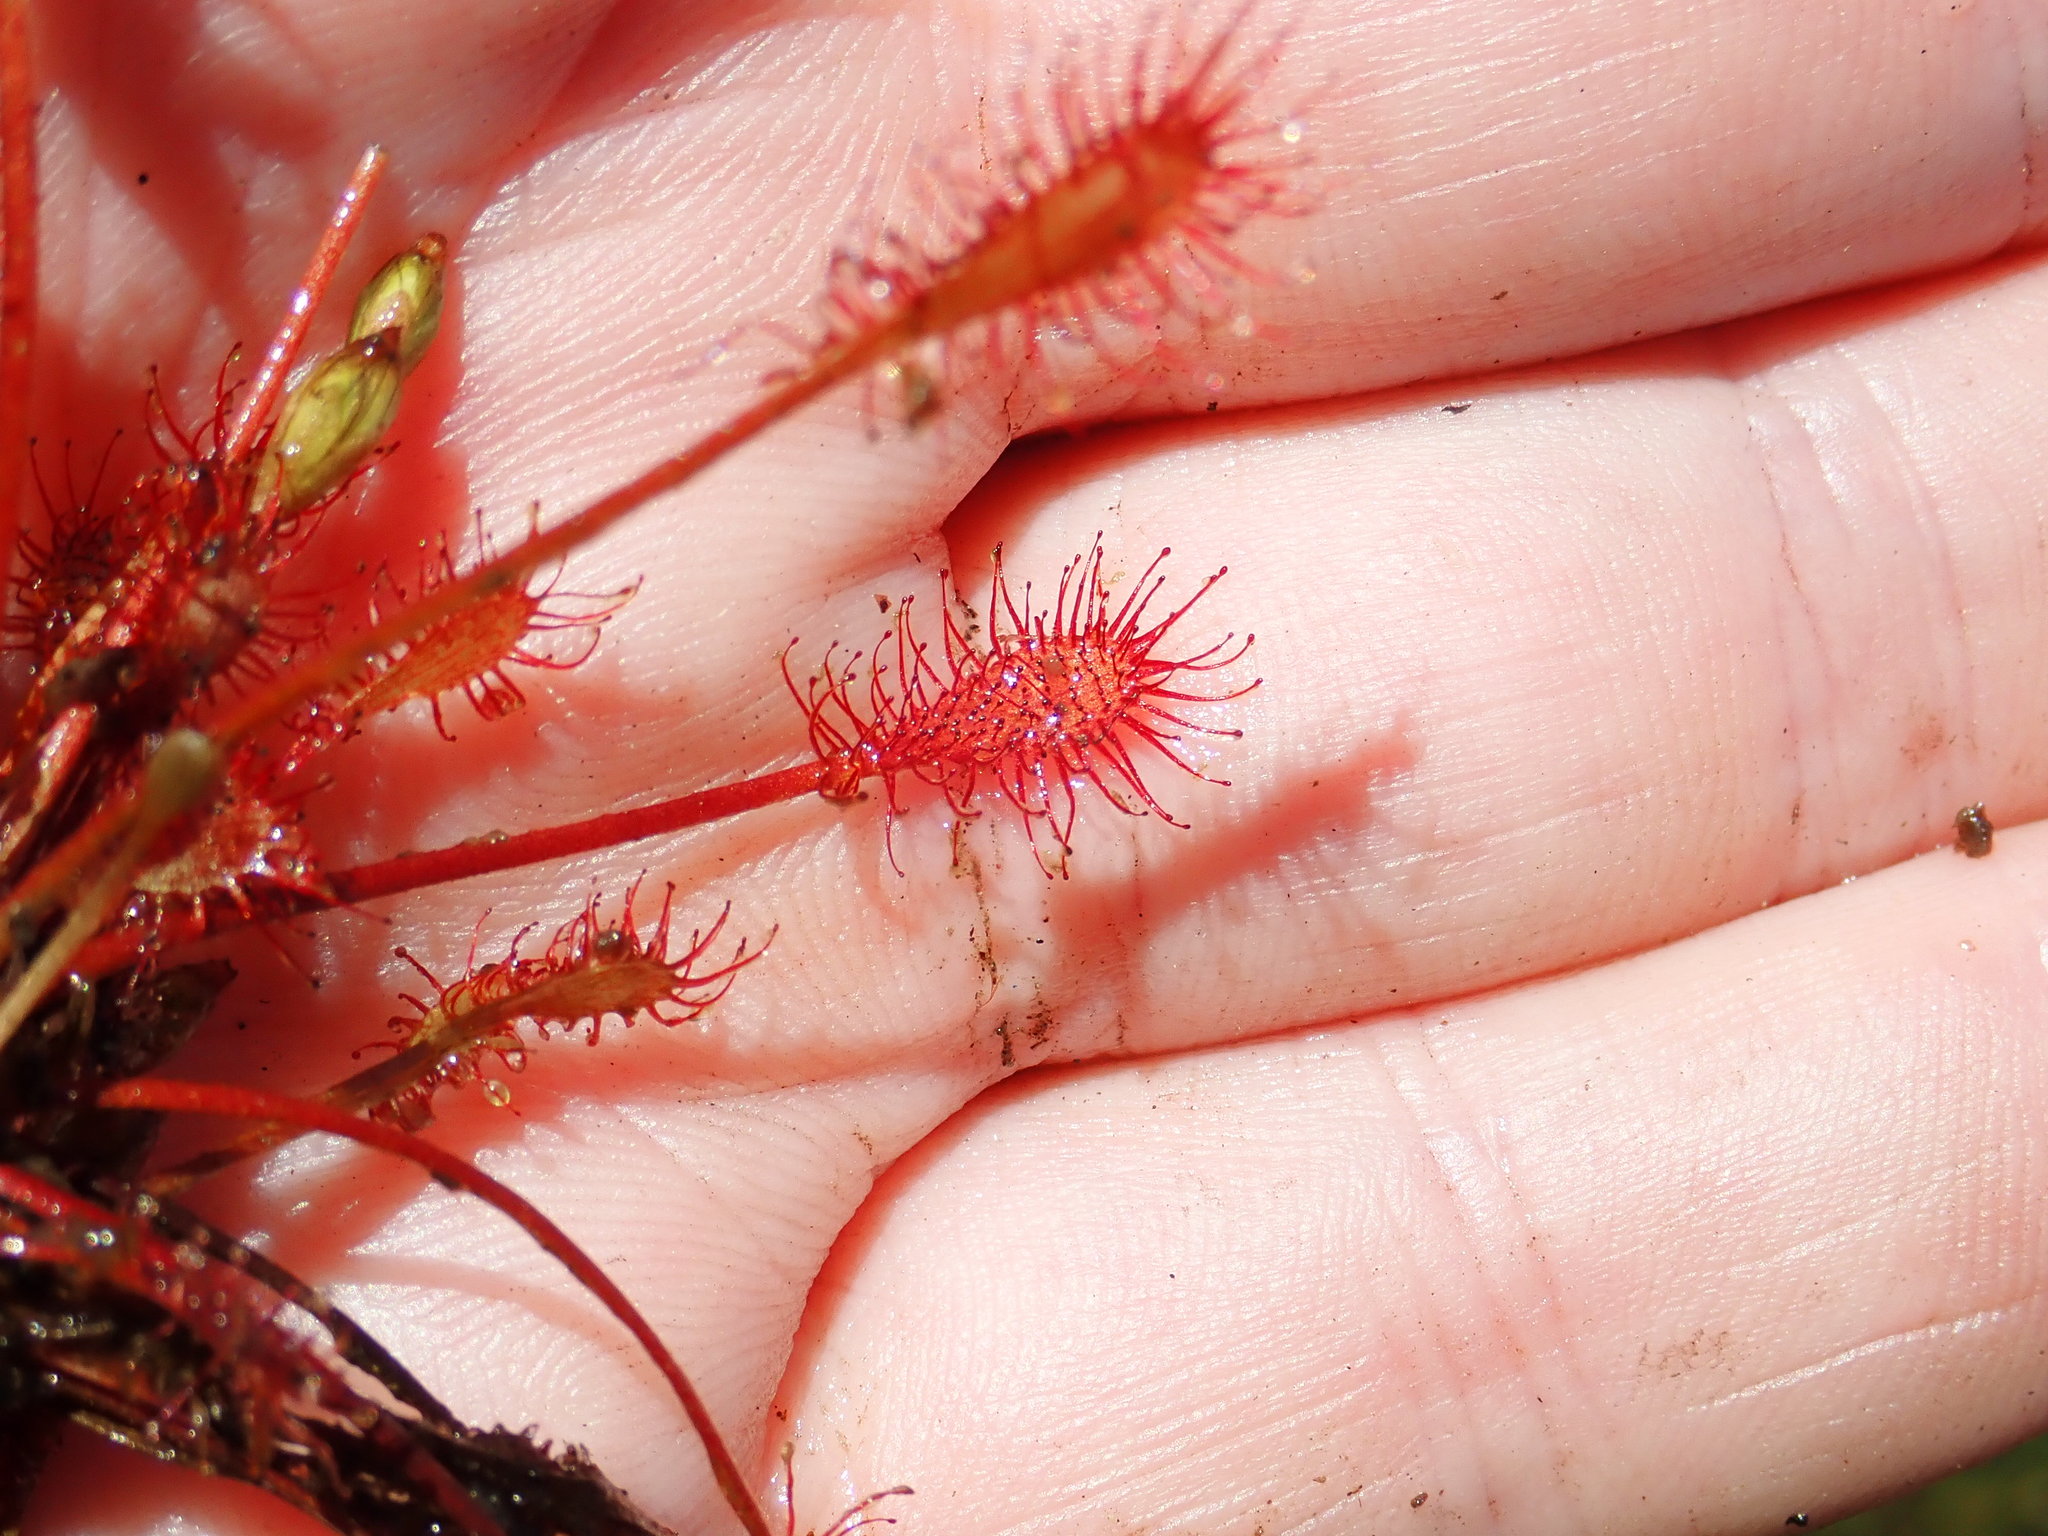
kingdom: Plantae
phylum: Tracheophyta
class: Magnoliopsida
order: Caryophyllales
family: Droseraceae
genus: Drosera
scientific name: Drosera intermedia
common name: Oblong-leaved sundew
